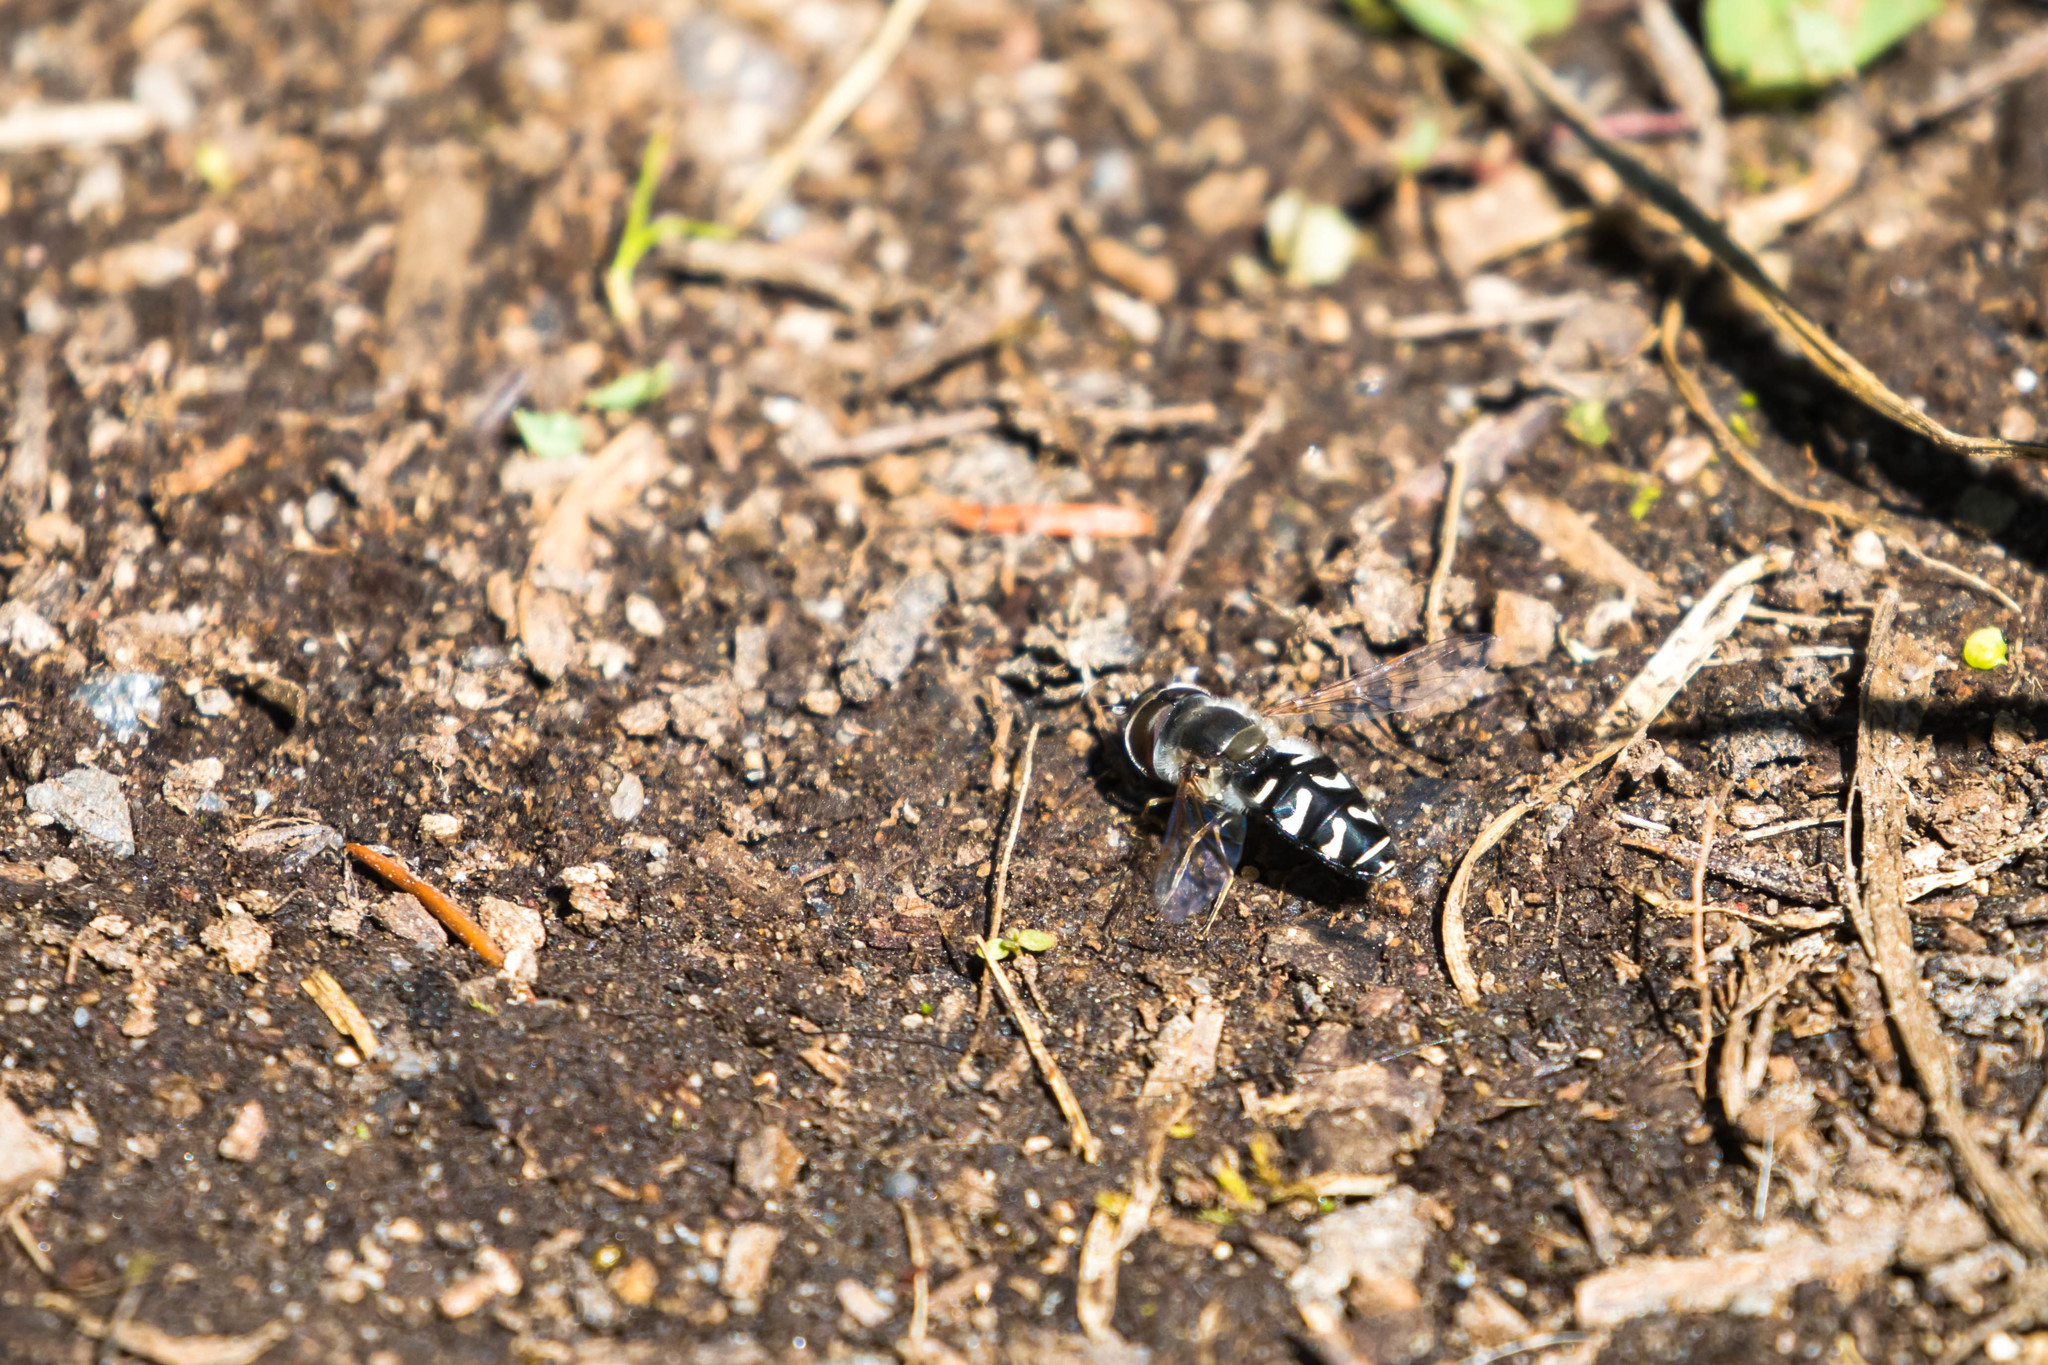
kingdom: Animalia
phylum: Arthropoda
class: Insecta
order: Diptera
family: Syrphidae
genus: Scaeva
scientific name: Scaeva affinis
